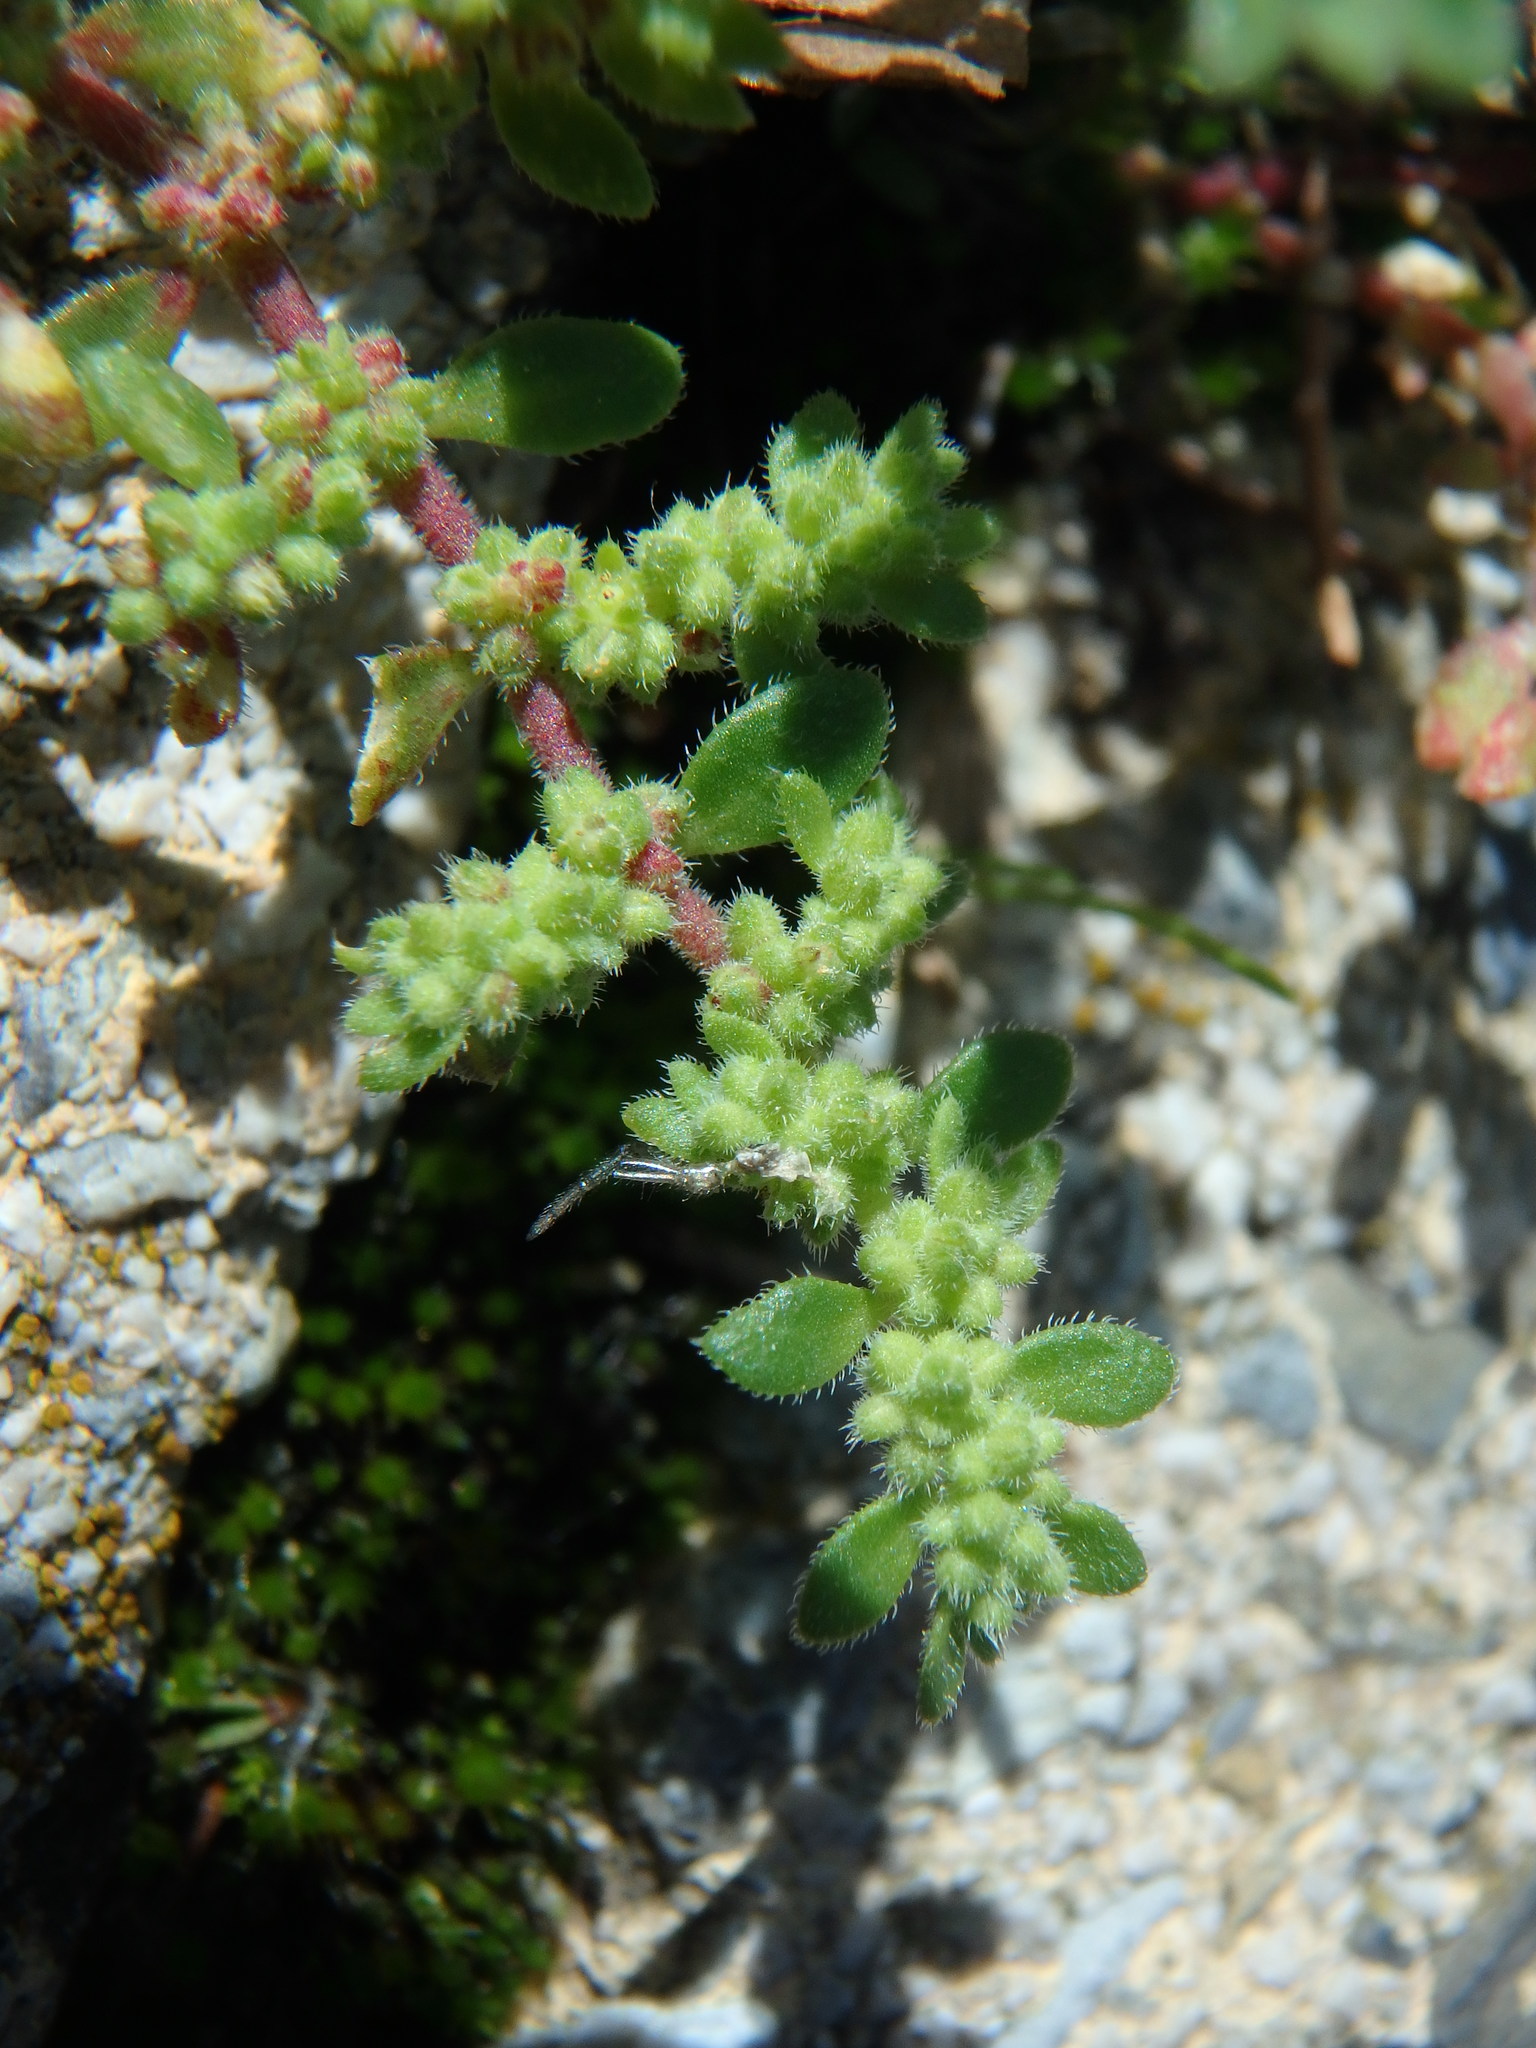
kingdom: Plantae
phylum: Tracheophyta
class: Magnoliopsida
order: Caryophyllales
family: Caryophyllaceae
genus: Herniaria
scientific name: Herniaria hirsuta
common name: Hairy rupturewort
